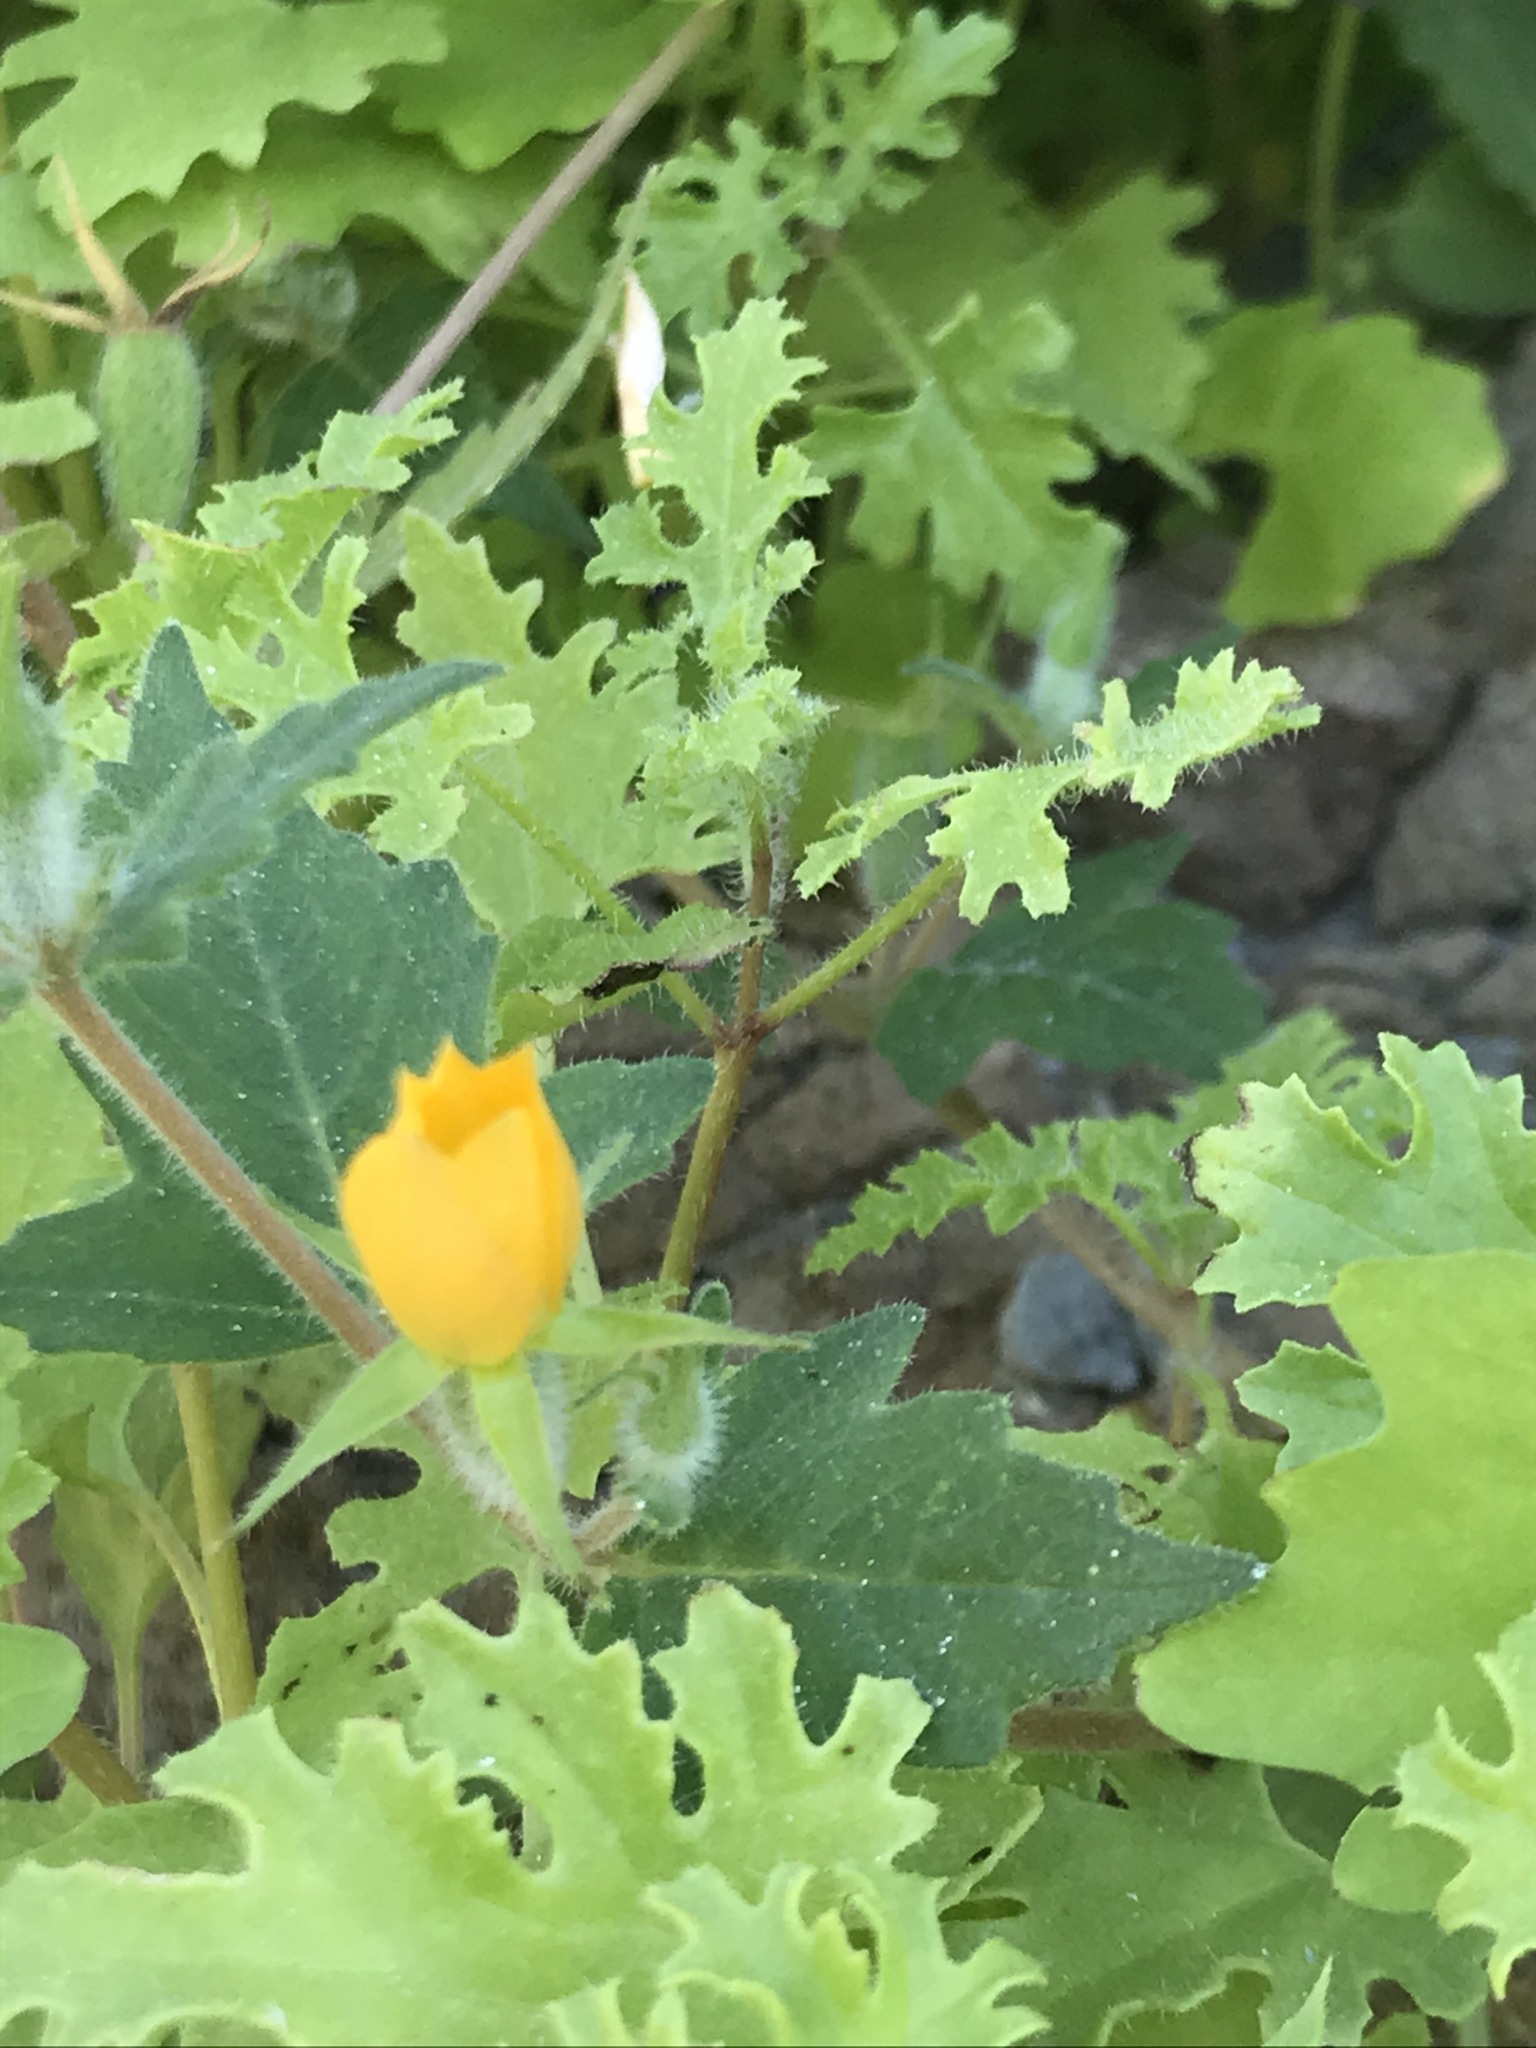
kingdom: Plantae
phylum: Tracheophyta
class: Magnoliopsida
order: Cornales
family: Loasaceae
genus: Mentzelia
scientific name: Mentzelia adhaerens
